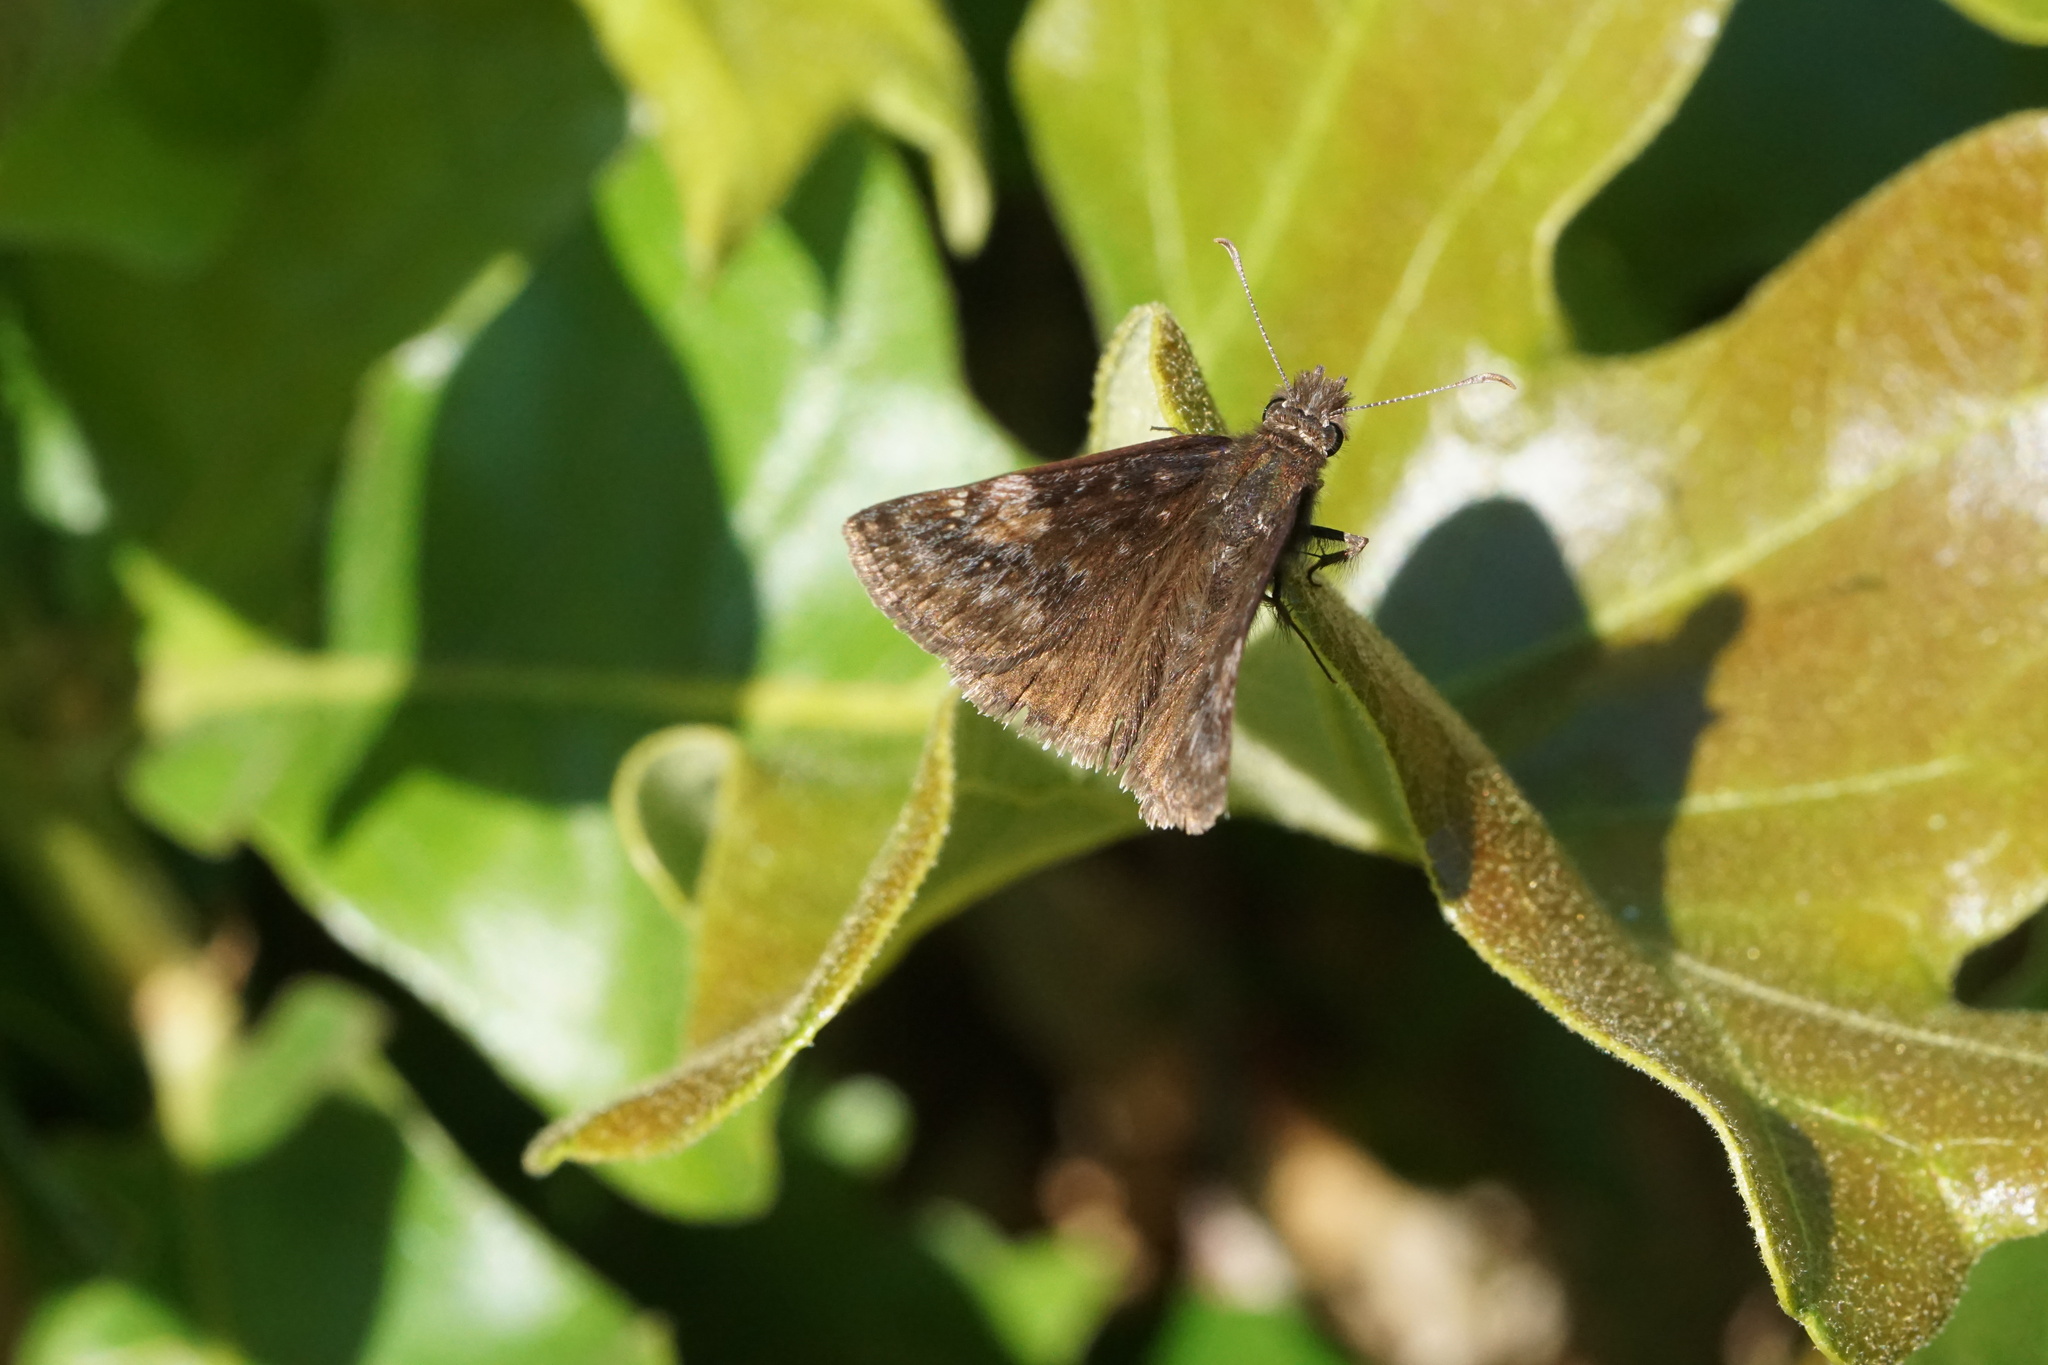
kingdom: Animalia
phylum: Arthropoda
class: Insecta
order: Lepidoptera
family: Hesperiidae
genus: Erynnis
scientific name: Erynnis baptisiae
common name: Wild indigo duskywing
